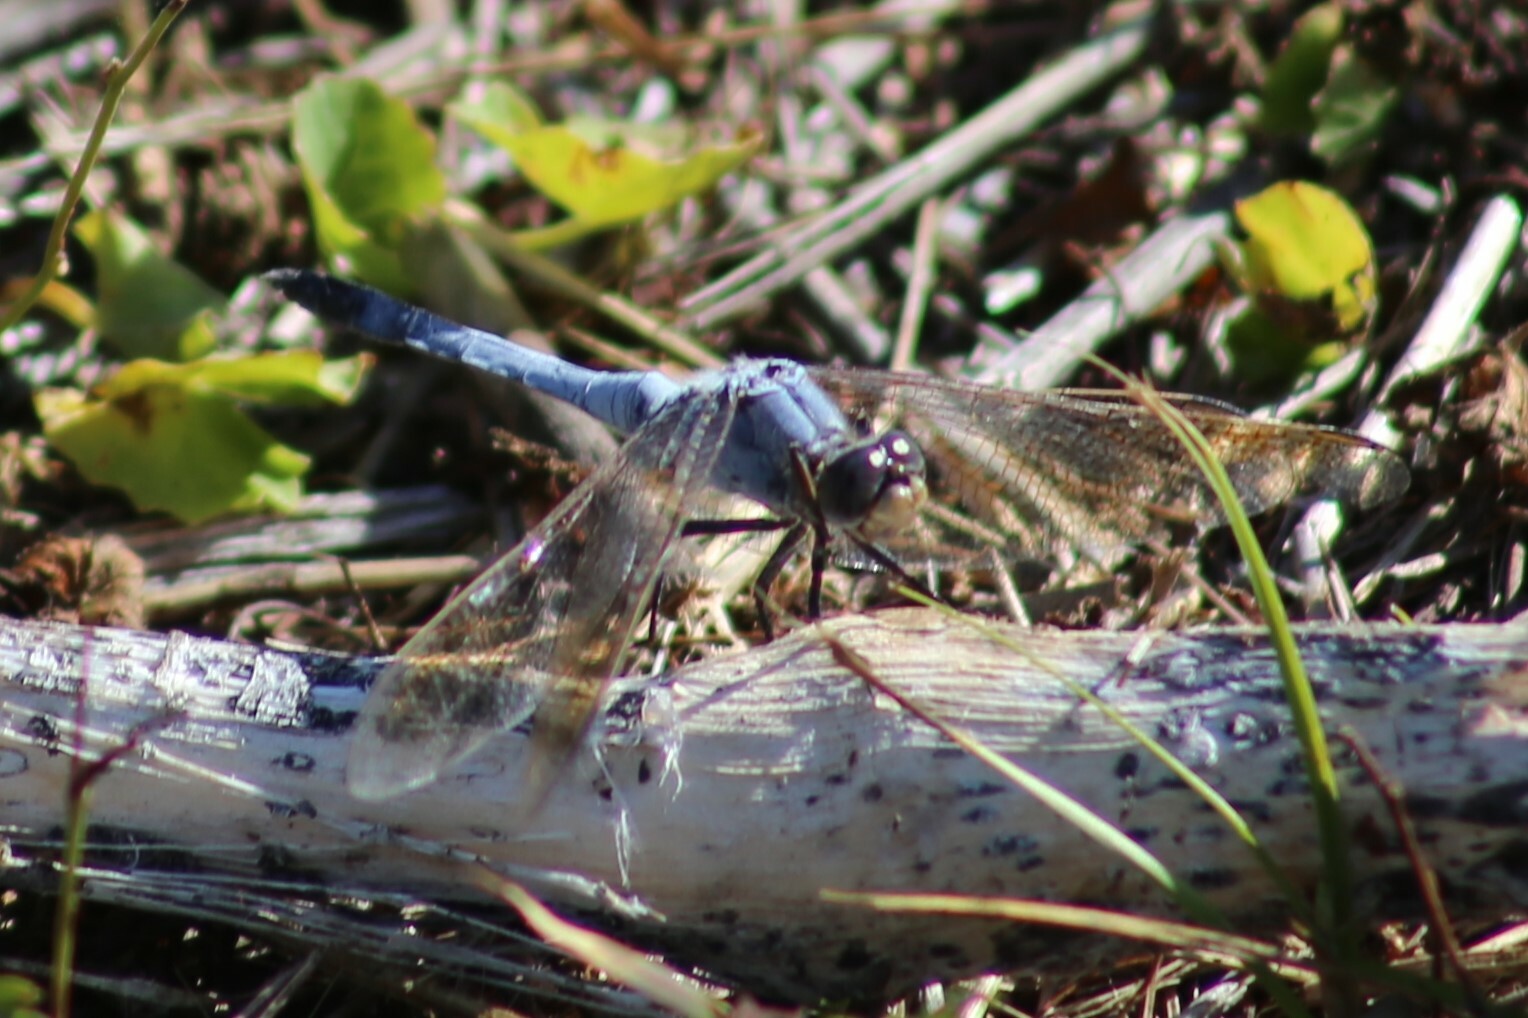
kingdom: Animalia
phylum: Arthropoda
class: Insecta
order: Odonata
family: Libellulidae
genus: Orthetrum
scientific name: Orthetrum caledonicum
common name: Blue skimmer
